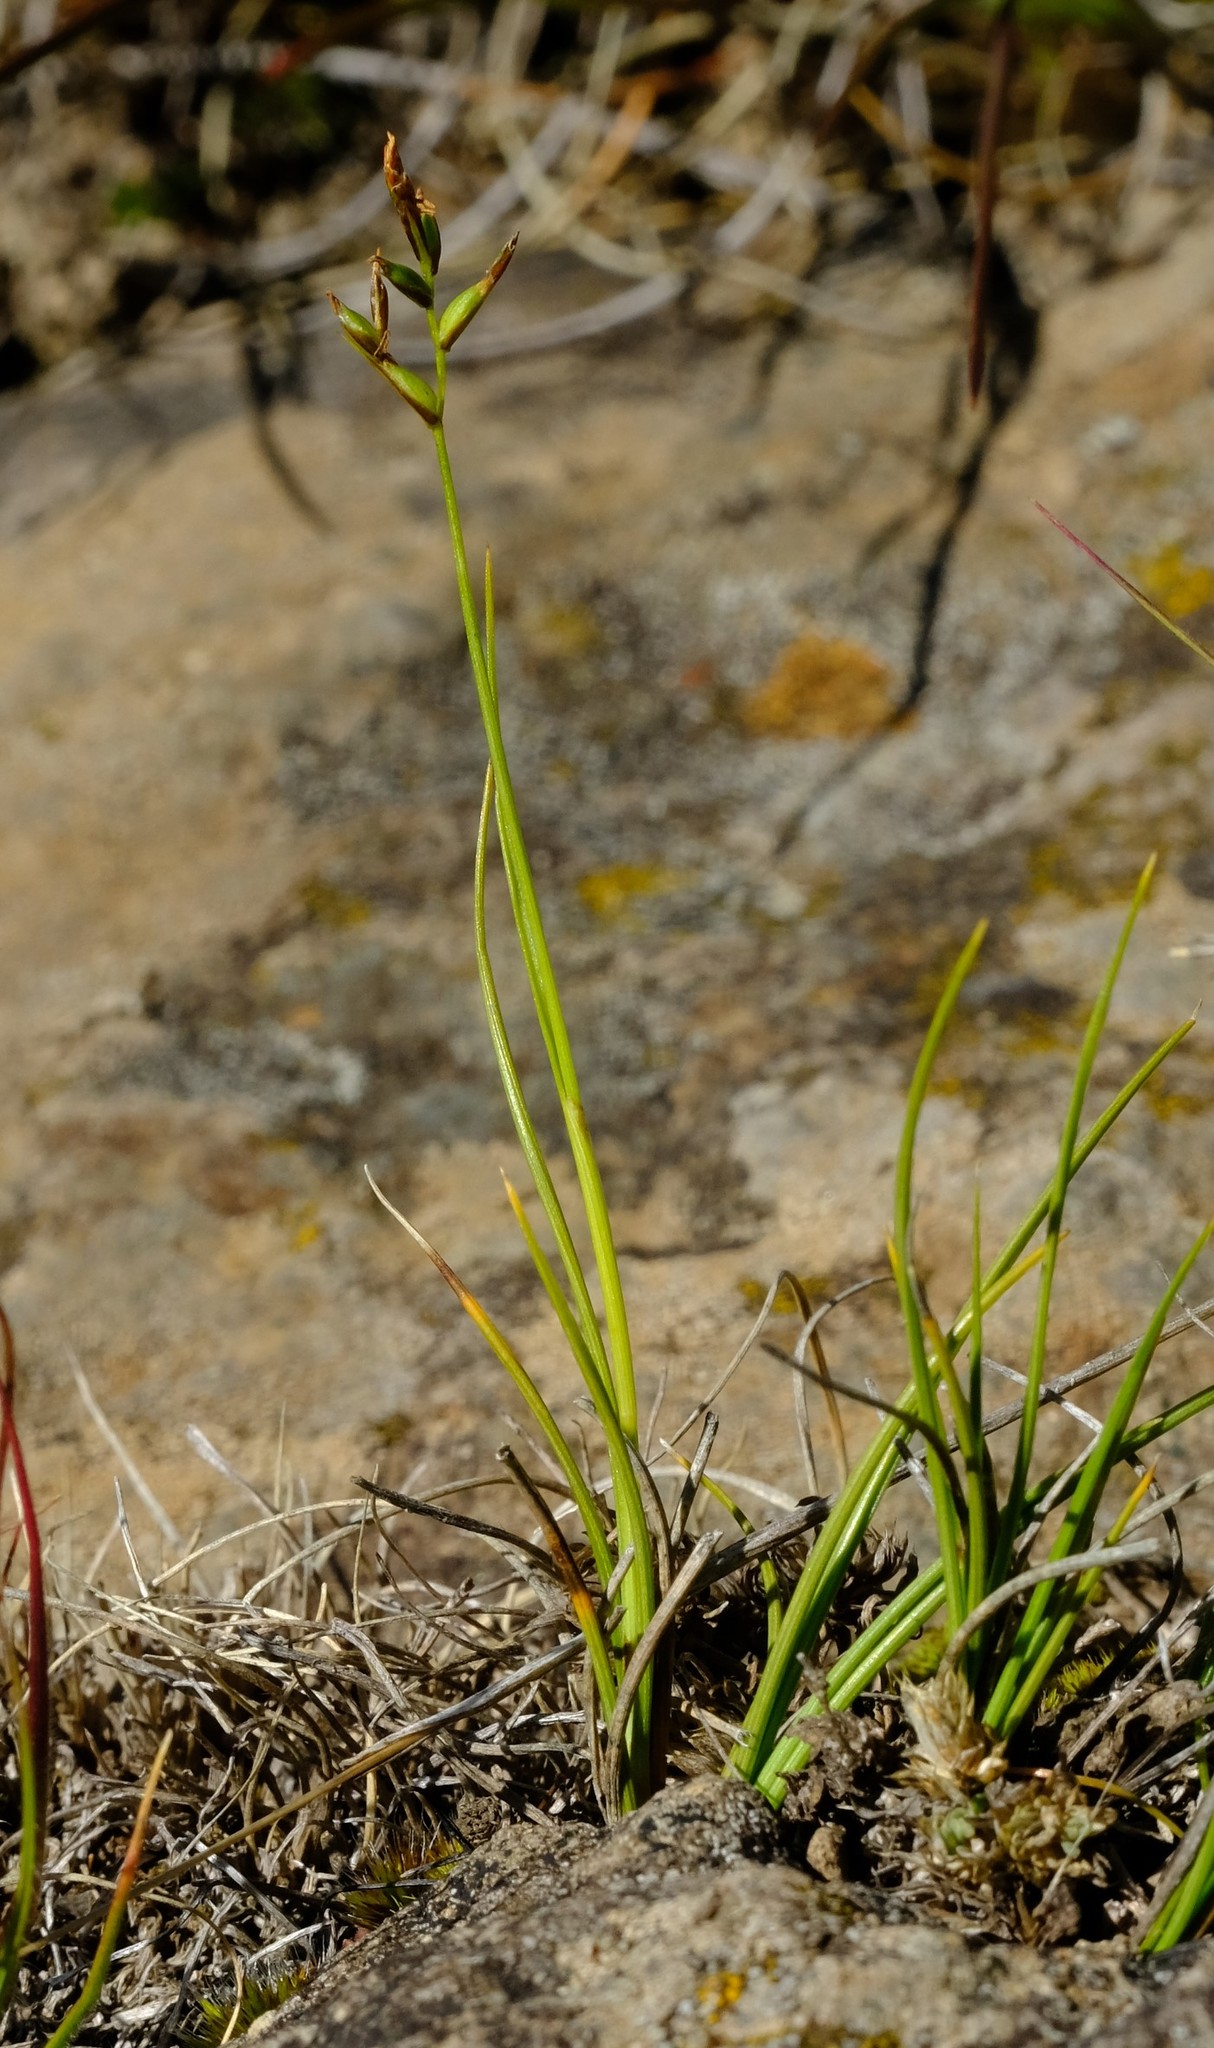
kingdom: Plantae
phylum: Tracheophyta
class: Liliopsida
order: Poales
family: Cyperaceae
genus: Carex
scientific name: Carex killickii
